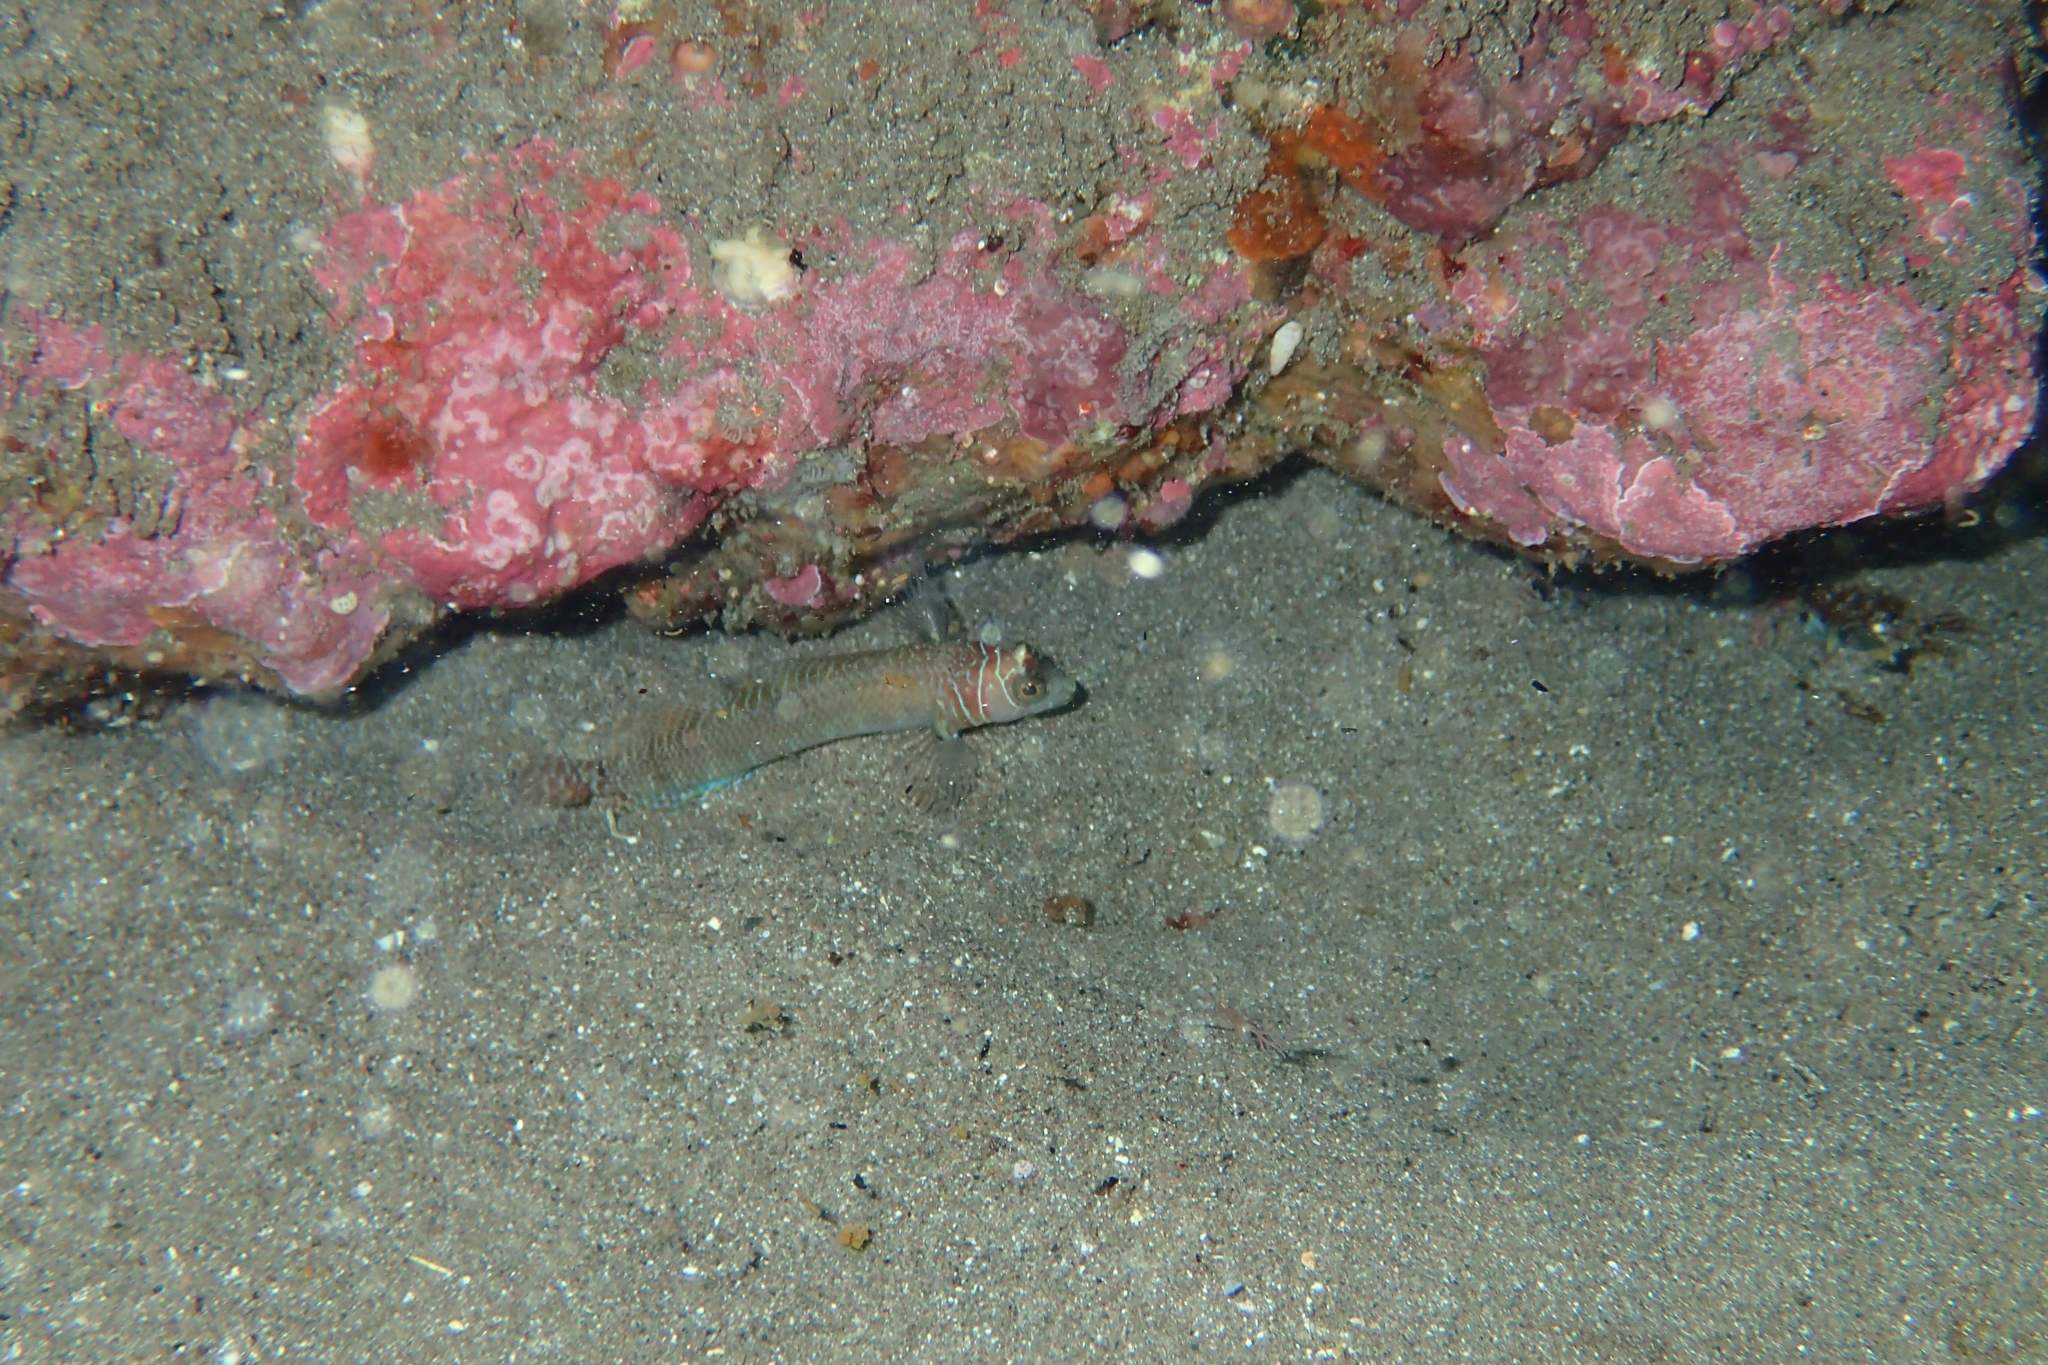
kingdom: Animalia
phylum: Chordata
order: Perciformes
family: Tripterygiidae
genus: Ruanoho
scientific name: Ruanoho whero
